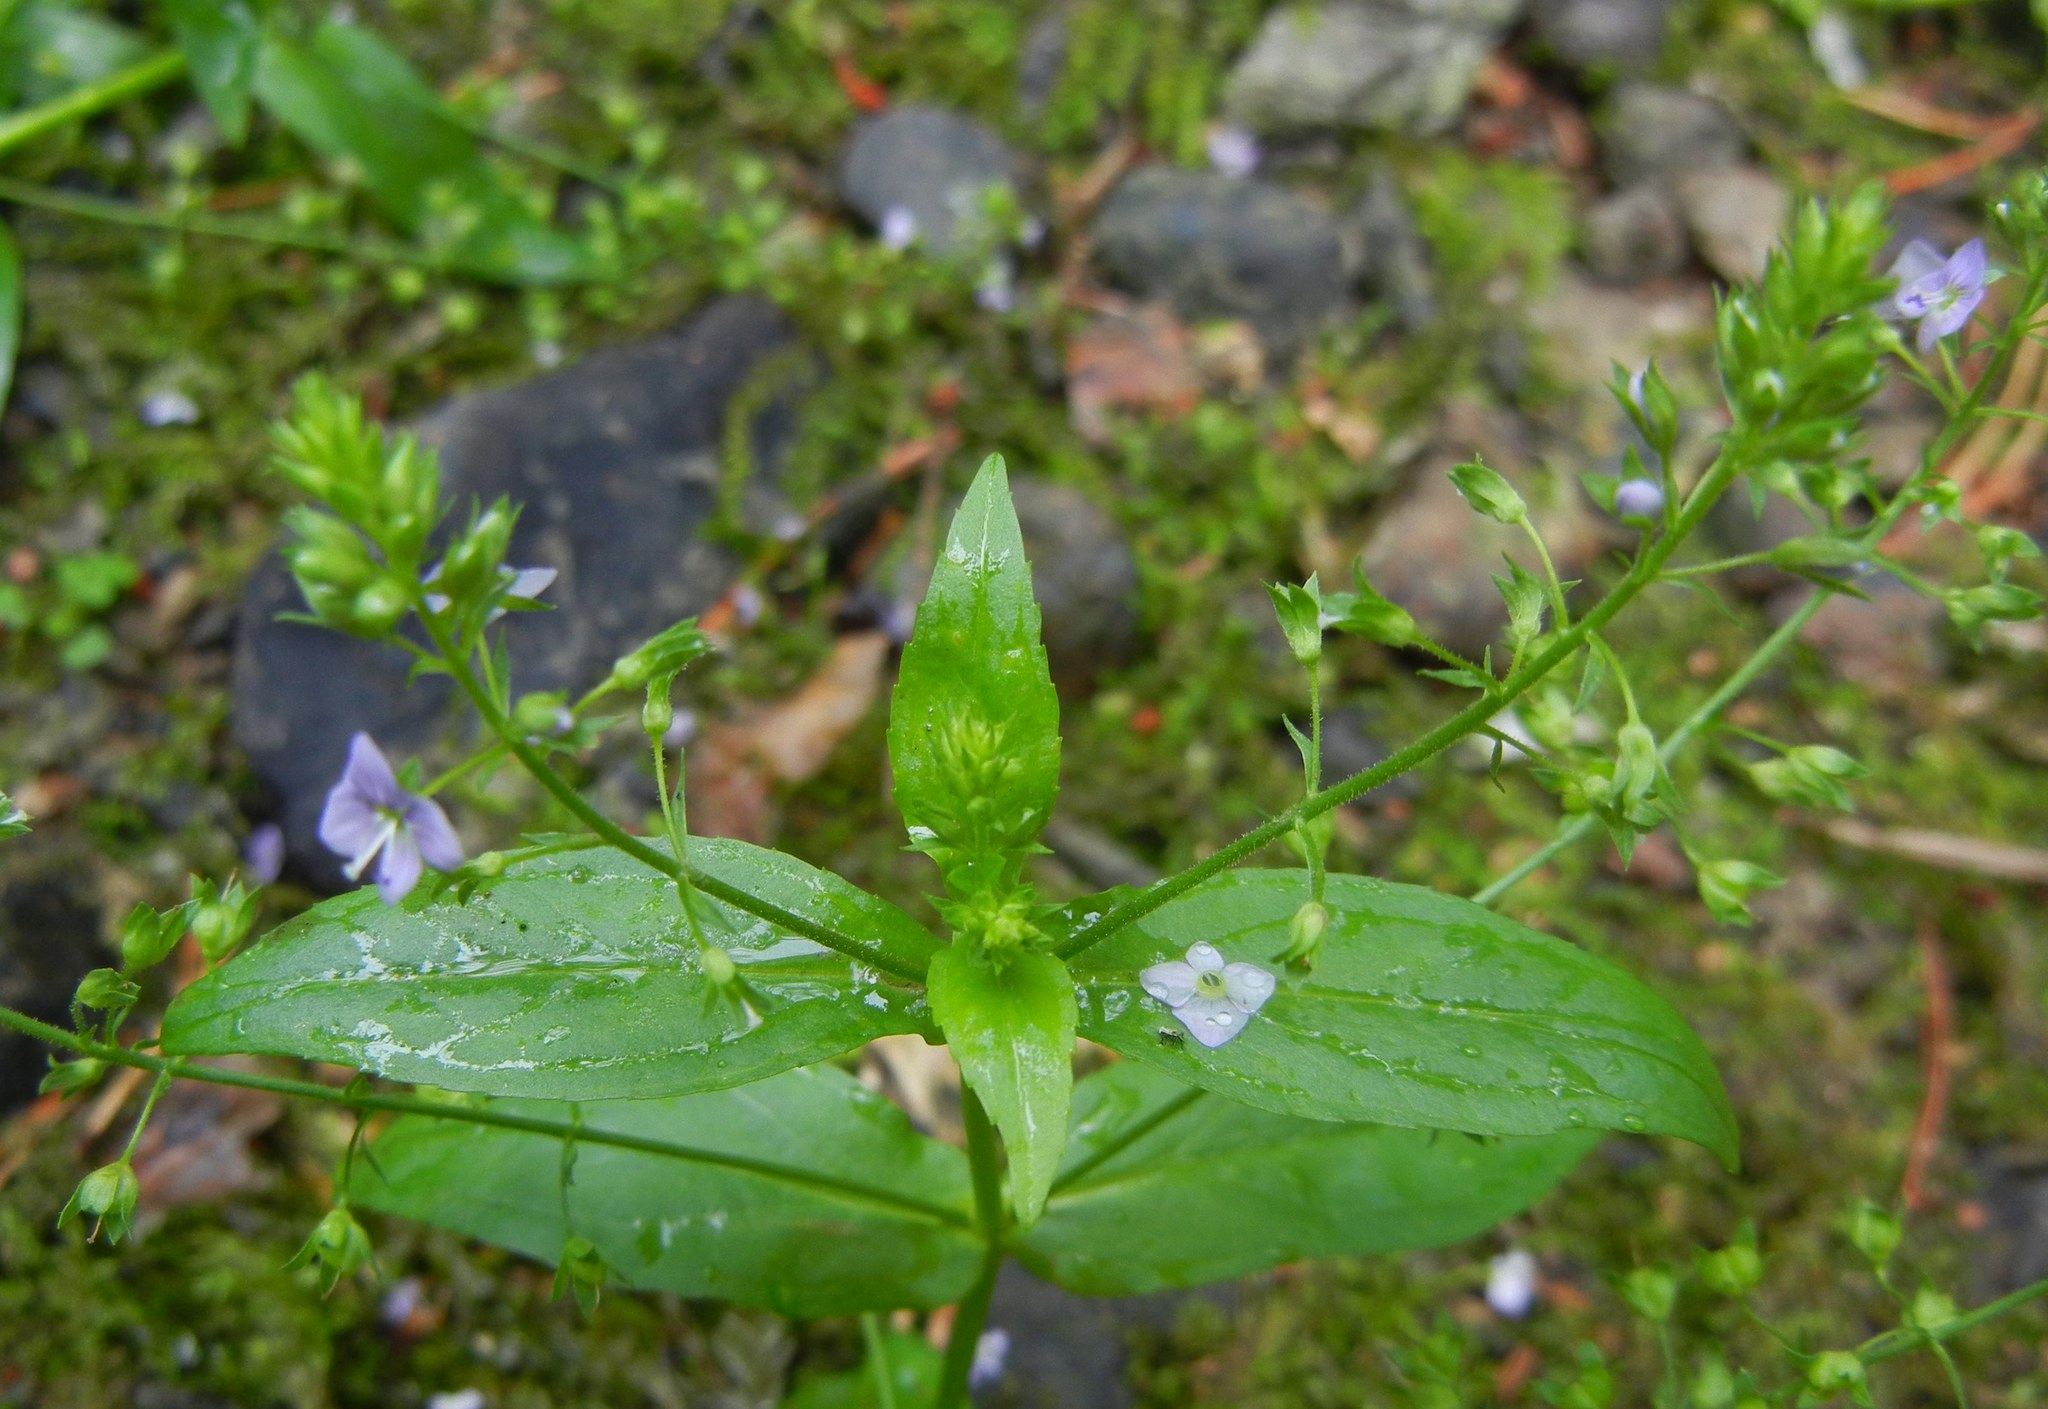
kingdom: Plantae
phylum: Tracheophyta
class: Magnoliopsida
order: Lamiales
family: Plantaginaceae
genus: Veronica
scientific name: Veronica anagallis-aquatica
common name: Water speedwell
